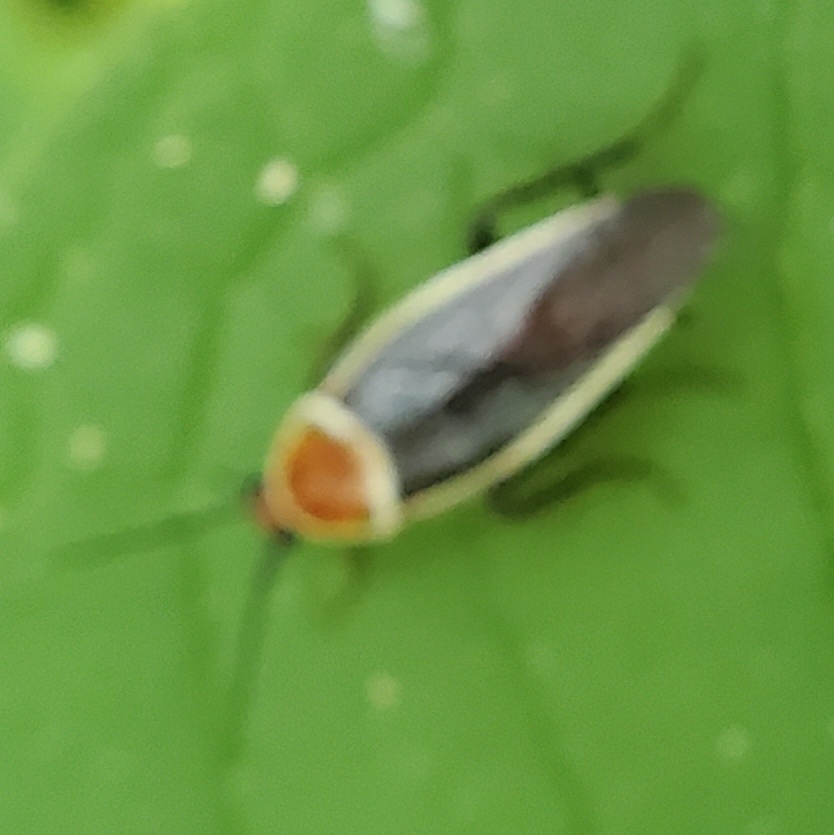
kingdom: Animalia
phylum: Arthropoda
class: Insecta
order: Blattodea
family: Ectobiidae
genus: Pseudomops
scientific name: Pseudomops septentrionalis
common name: Pale-bordered field cockroach
